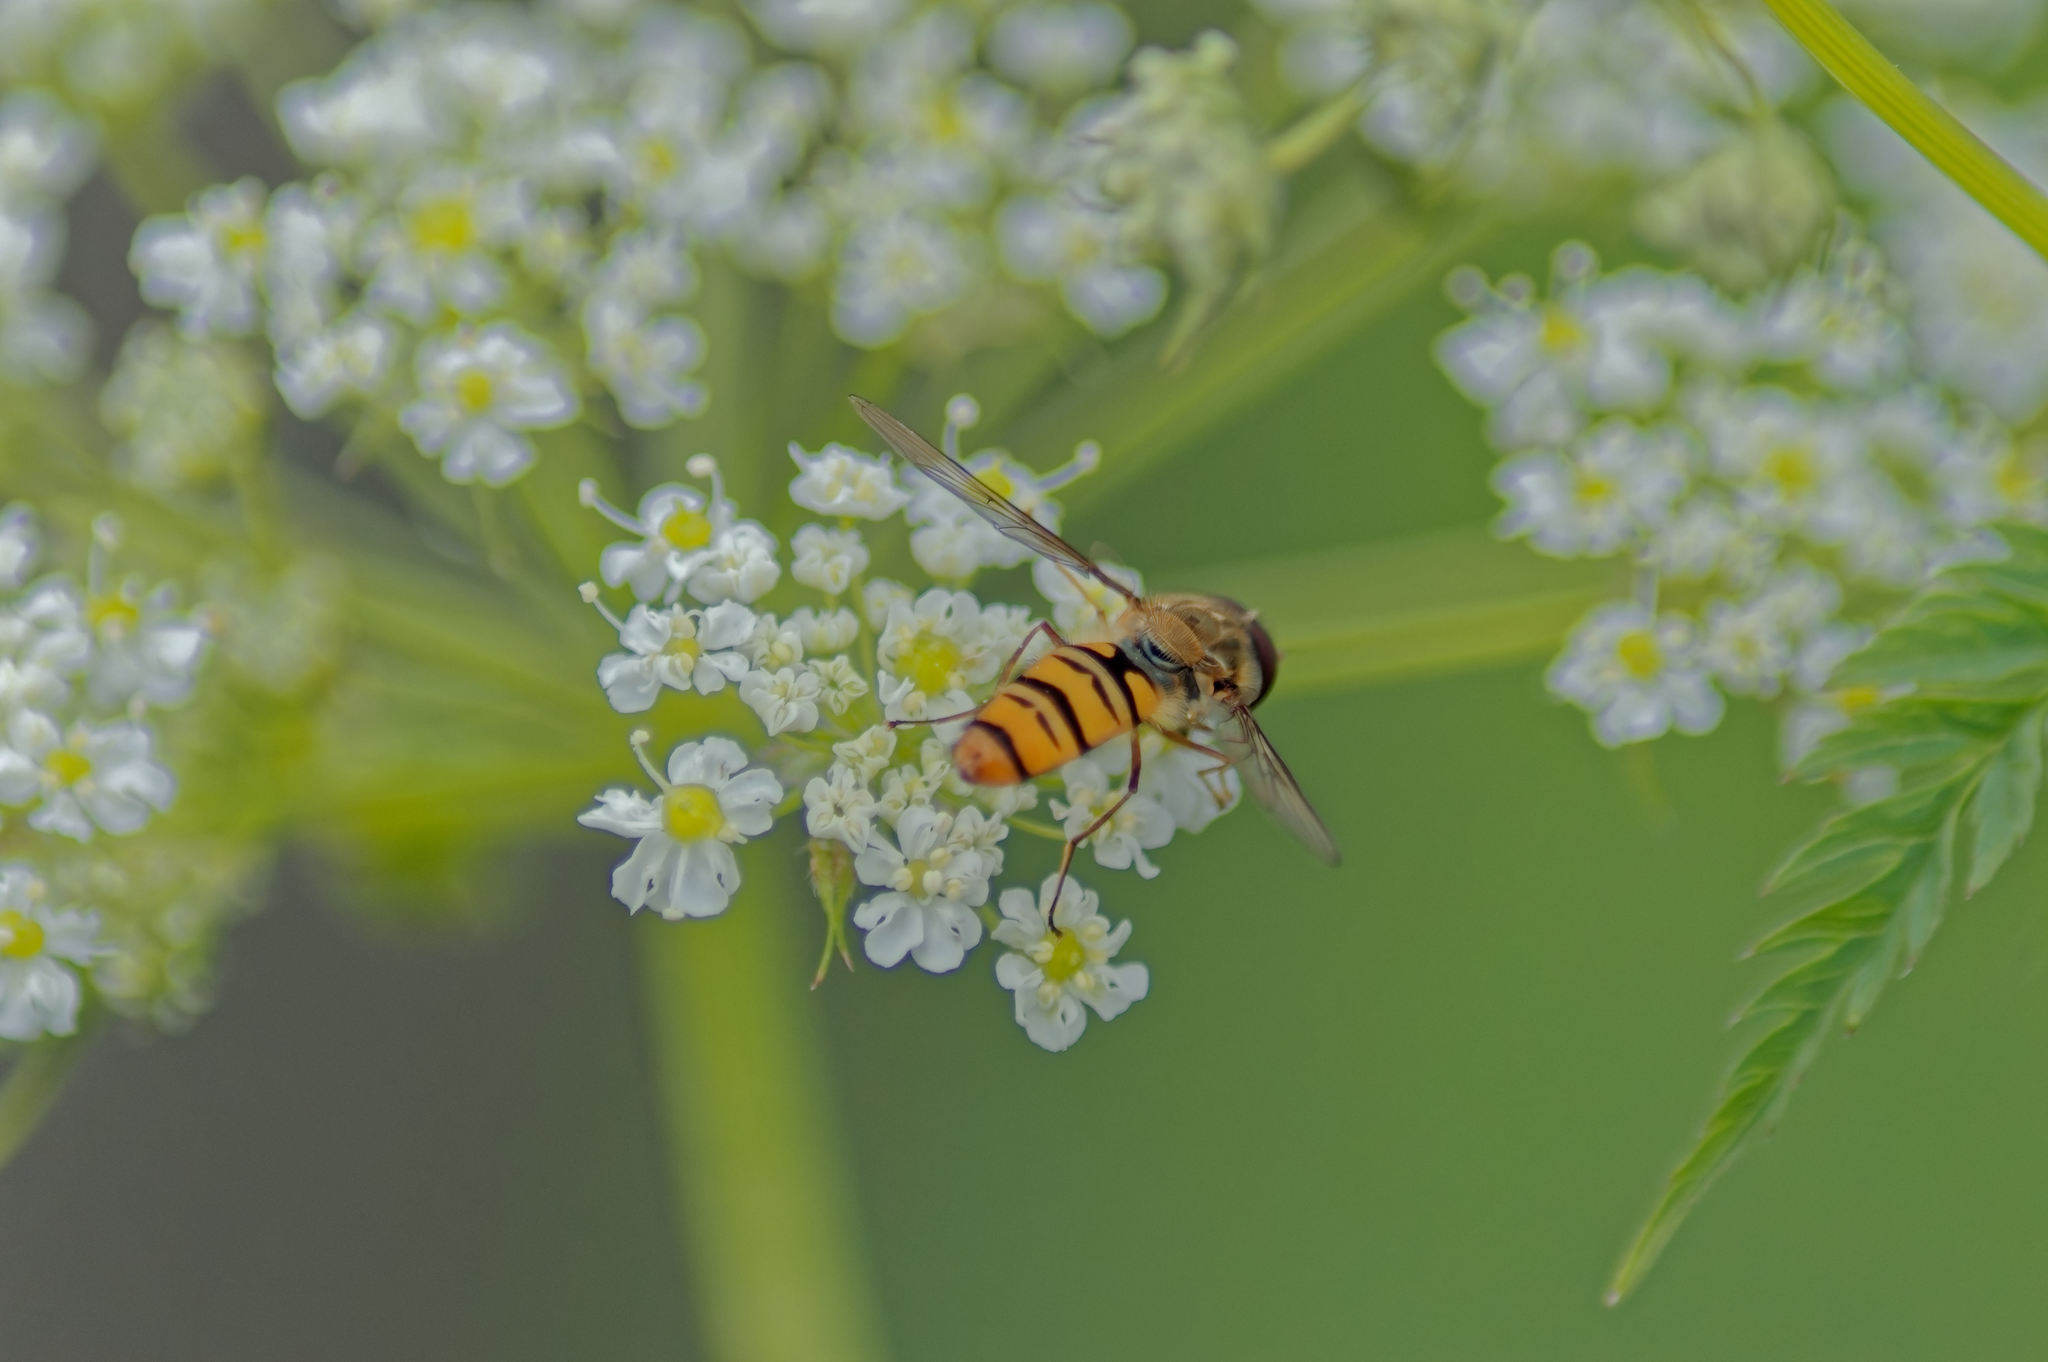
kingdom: Animalia
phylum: Arthropoda
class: Insecta
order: Diptera
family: Syrphidae
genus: Episyrphus
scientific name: Episyrphus balteatus
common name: Marmalade hoverfly
